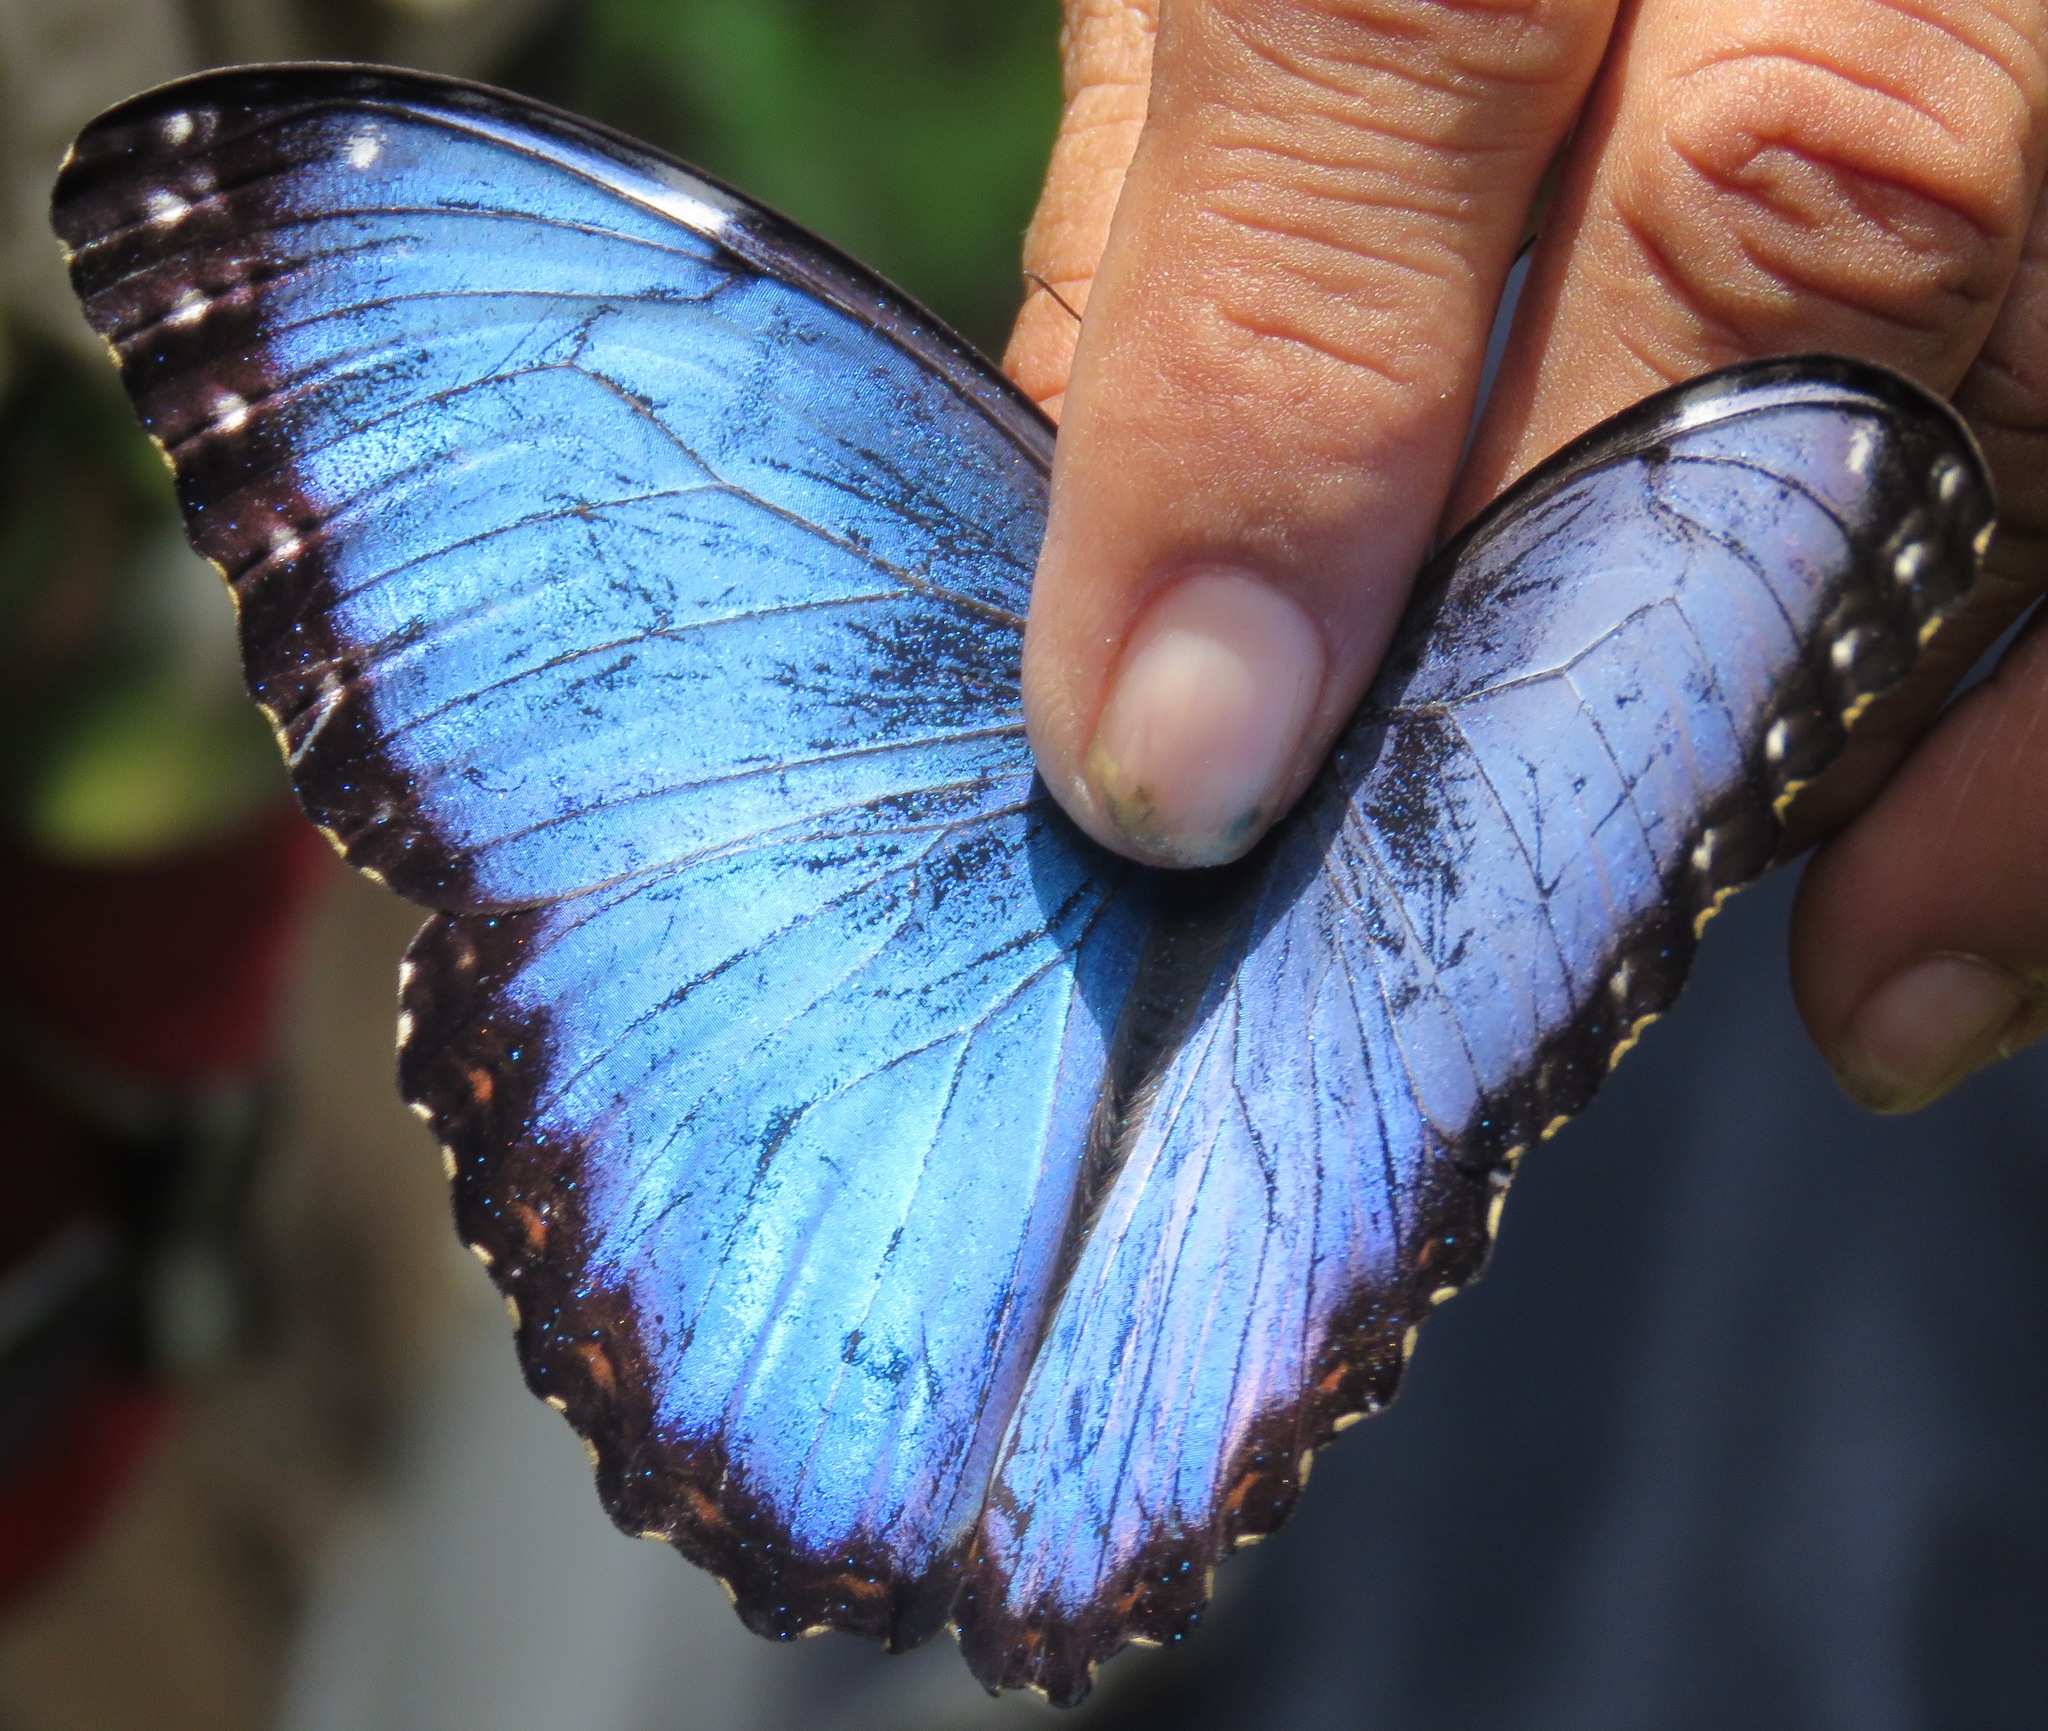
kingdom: Animalia
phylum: Arthropoda
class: Insecta
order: Lepidoptera
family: Nymphalidae
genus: Morpho
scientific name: Morpho helenor
